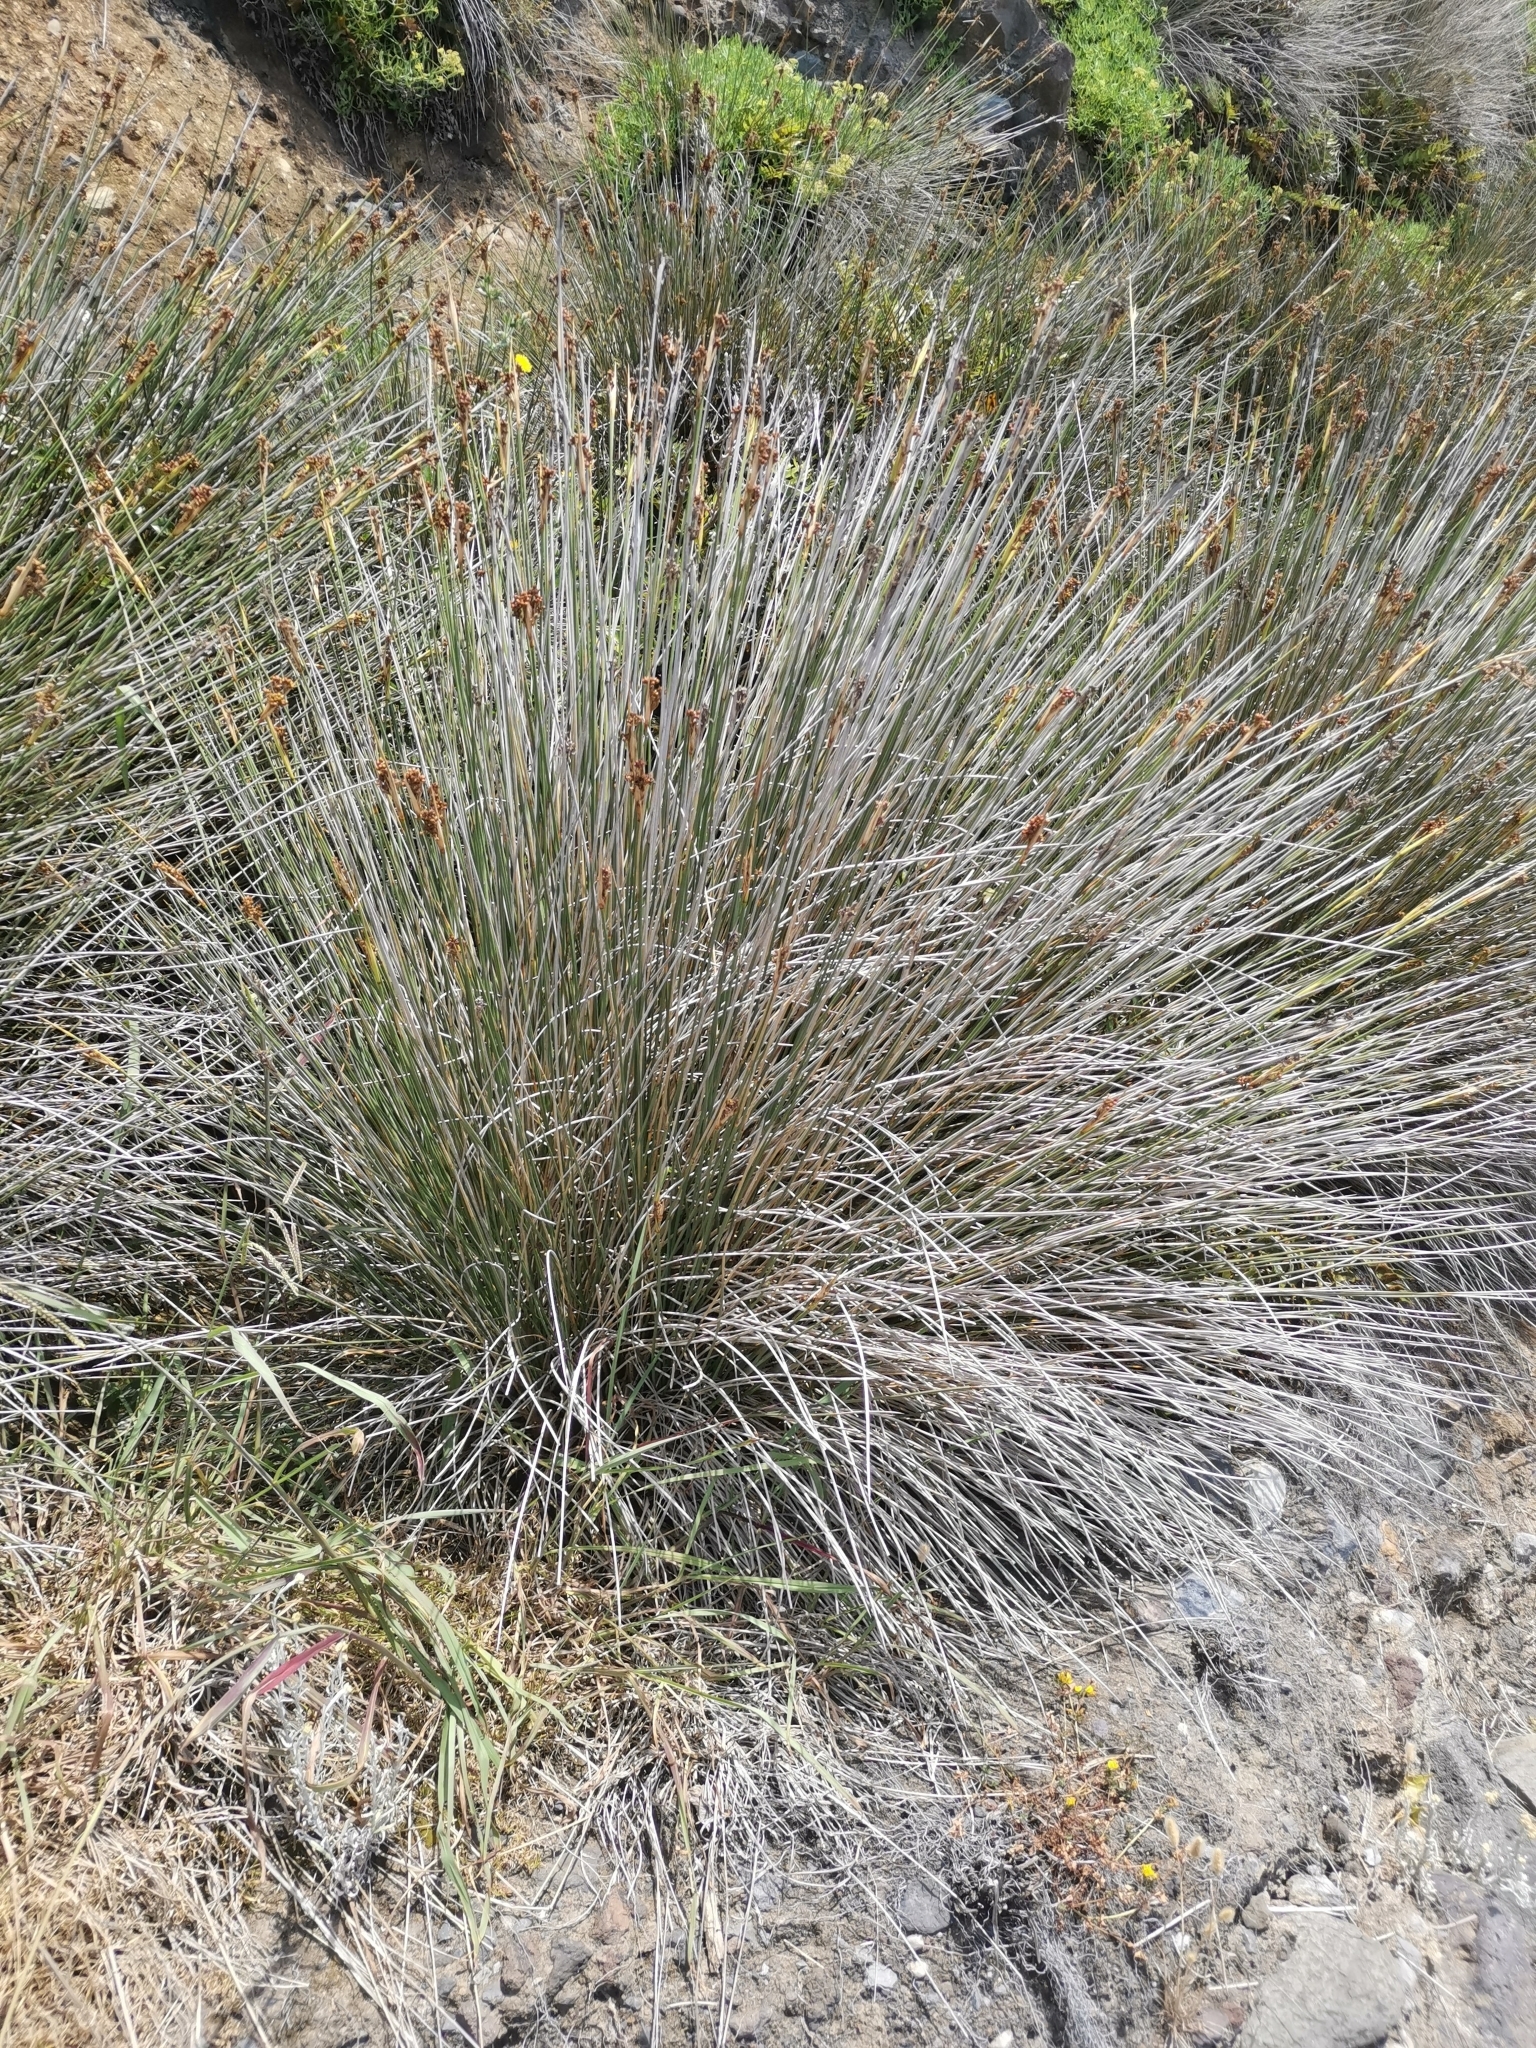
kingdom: Plantae
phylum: Tracheophyta
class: Liliopsida
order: Poales
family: Juncaceae
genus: Juncus
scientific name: Juncus acutus
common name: Sharp rush
